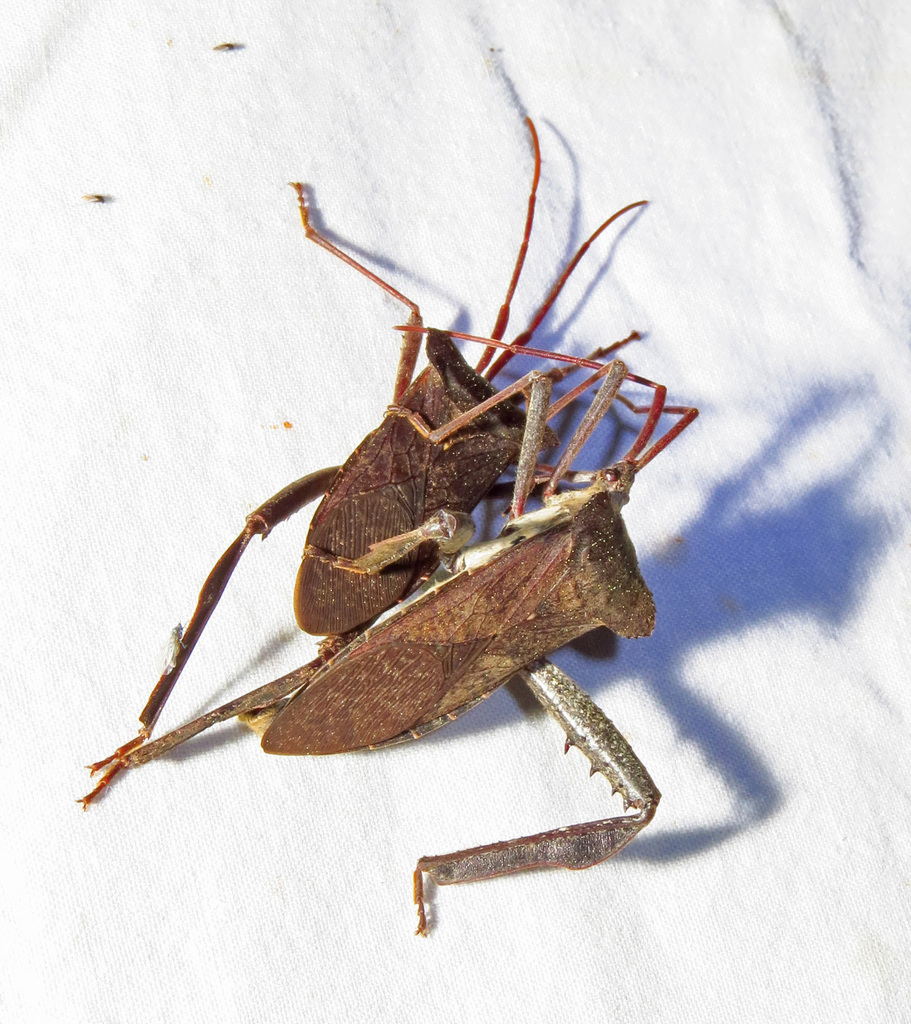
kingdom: Animalia
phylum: Arthropoda
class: Insecta
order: Hemiptera
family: Coreidae
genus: Acanthocephala
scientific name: Acanthocephala declivis
